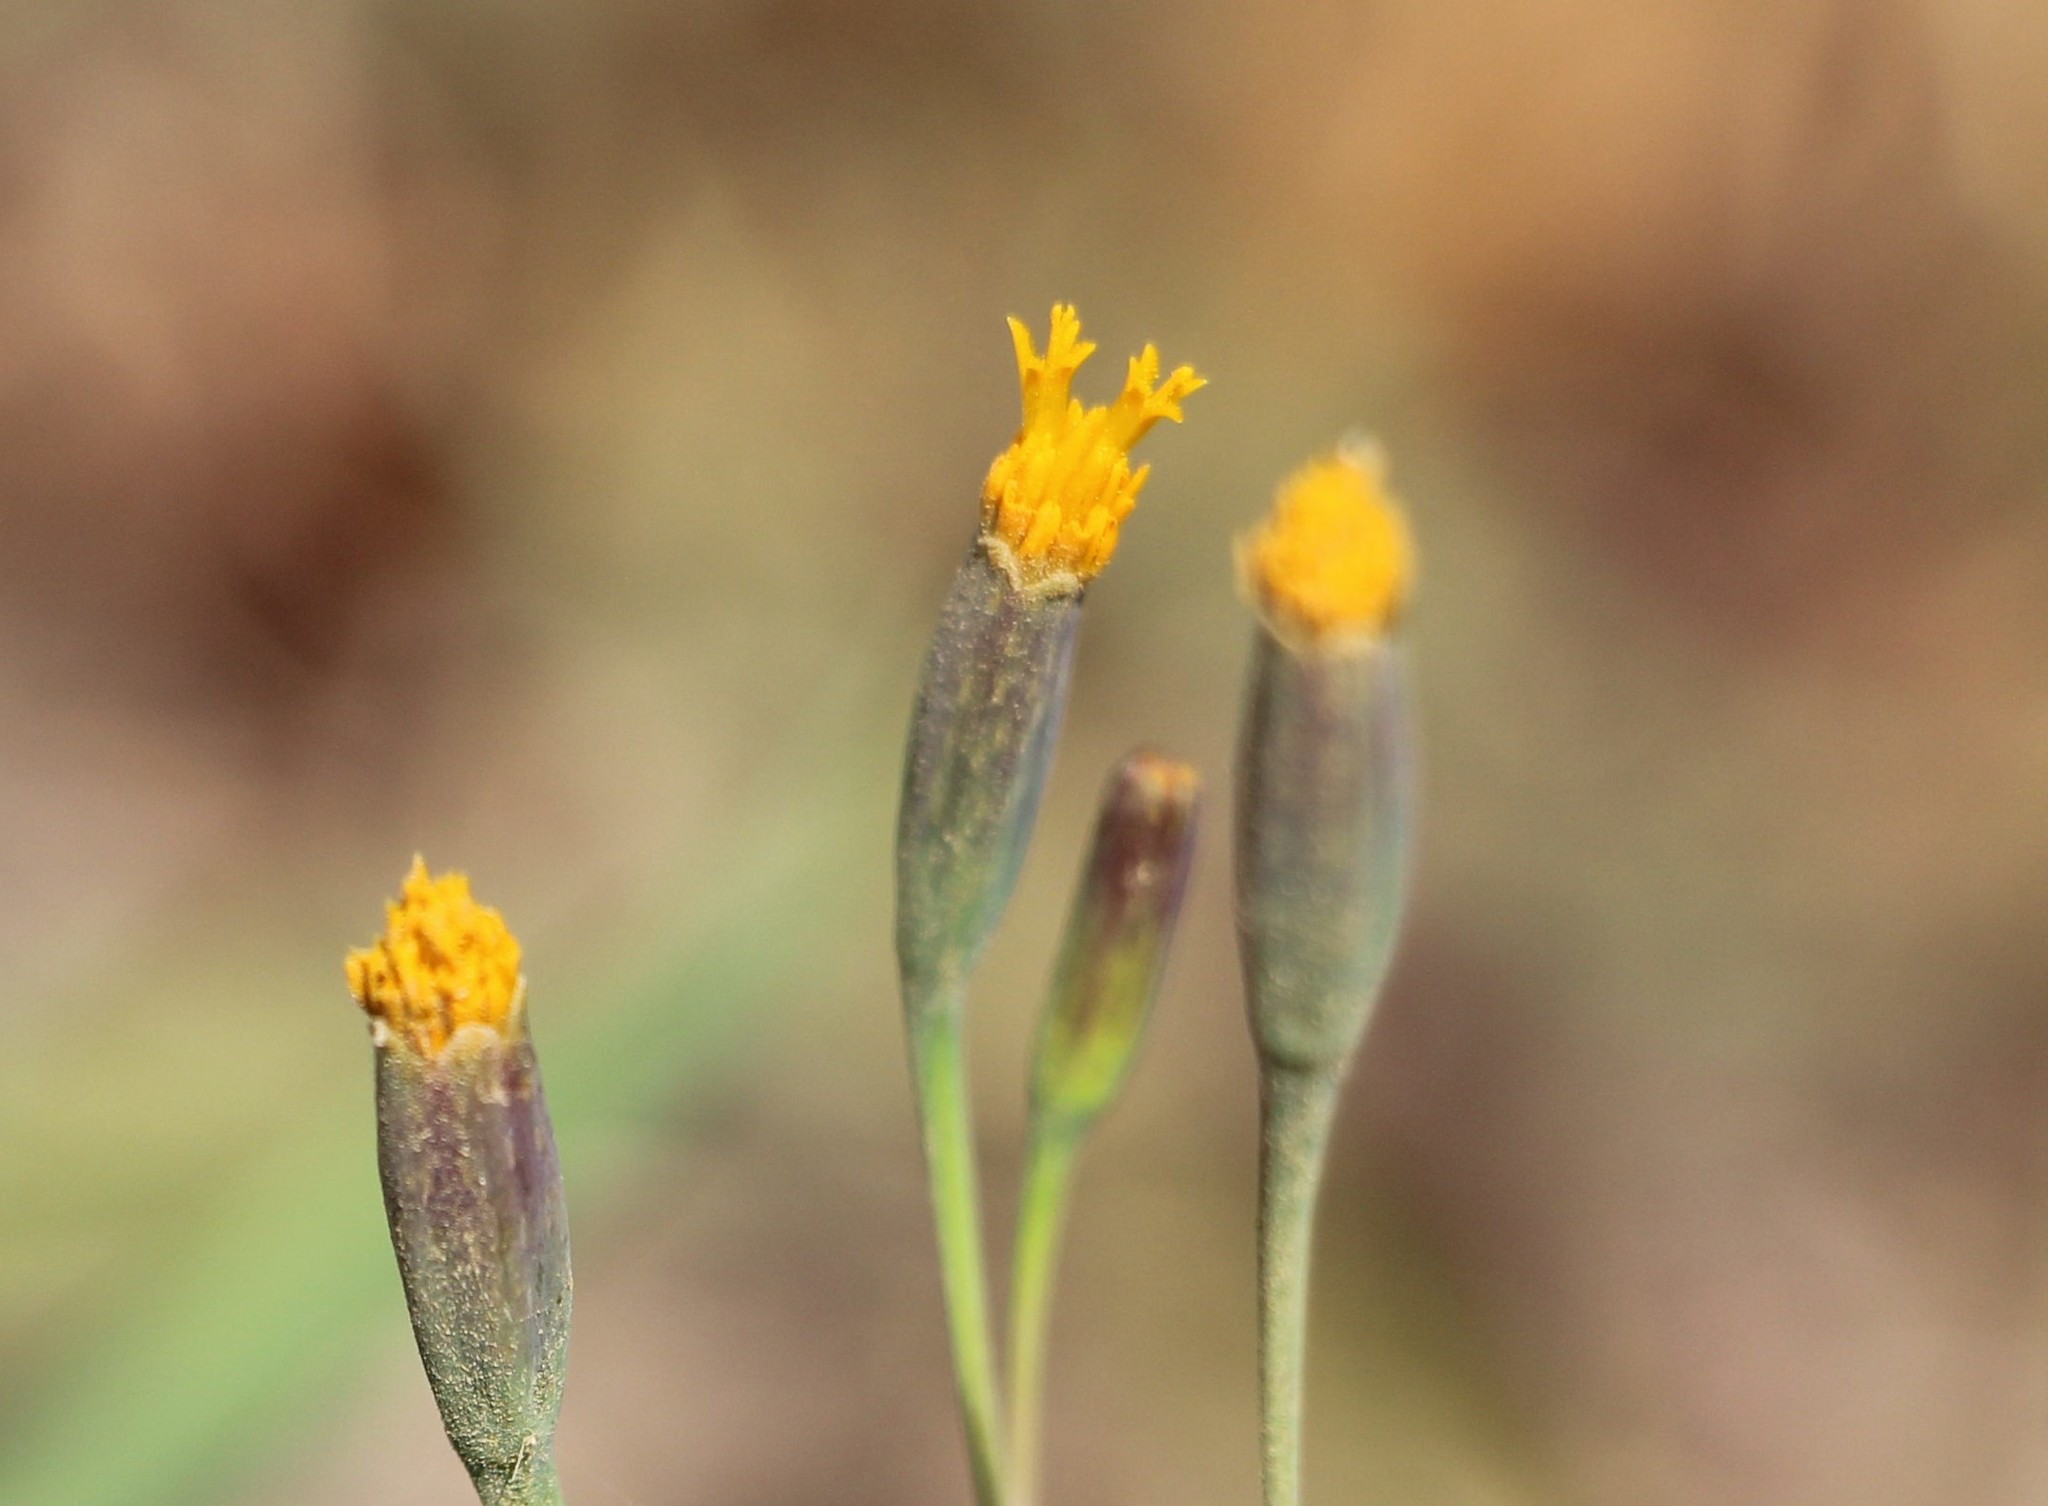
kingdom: Plantae
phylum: Tracheophyta
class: Magnoliopsida
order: Asterales
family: Asteraceae
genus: Tagetes
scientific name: Tagetes verticillata
